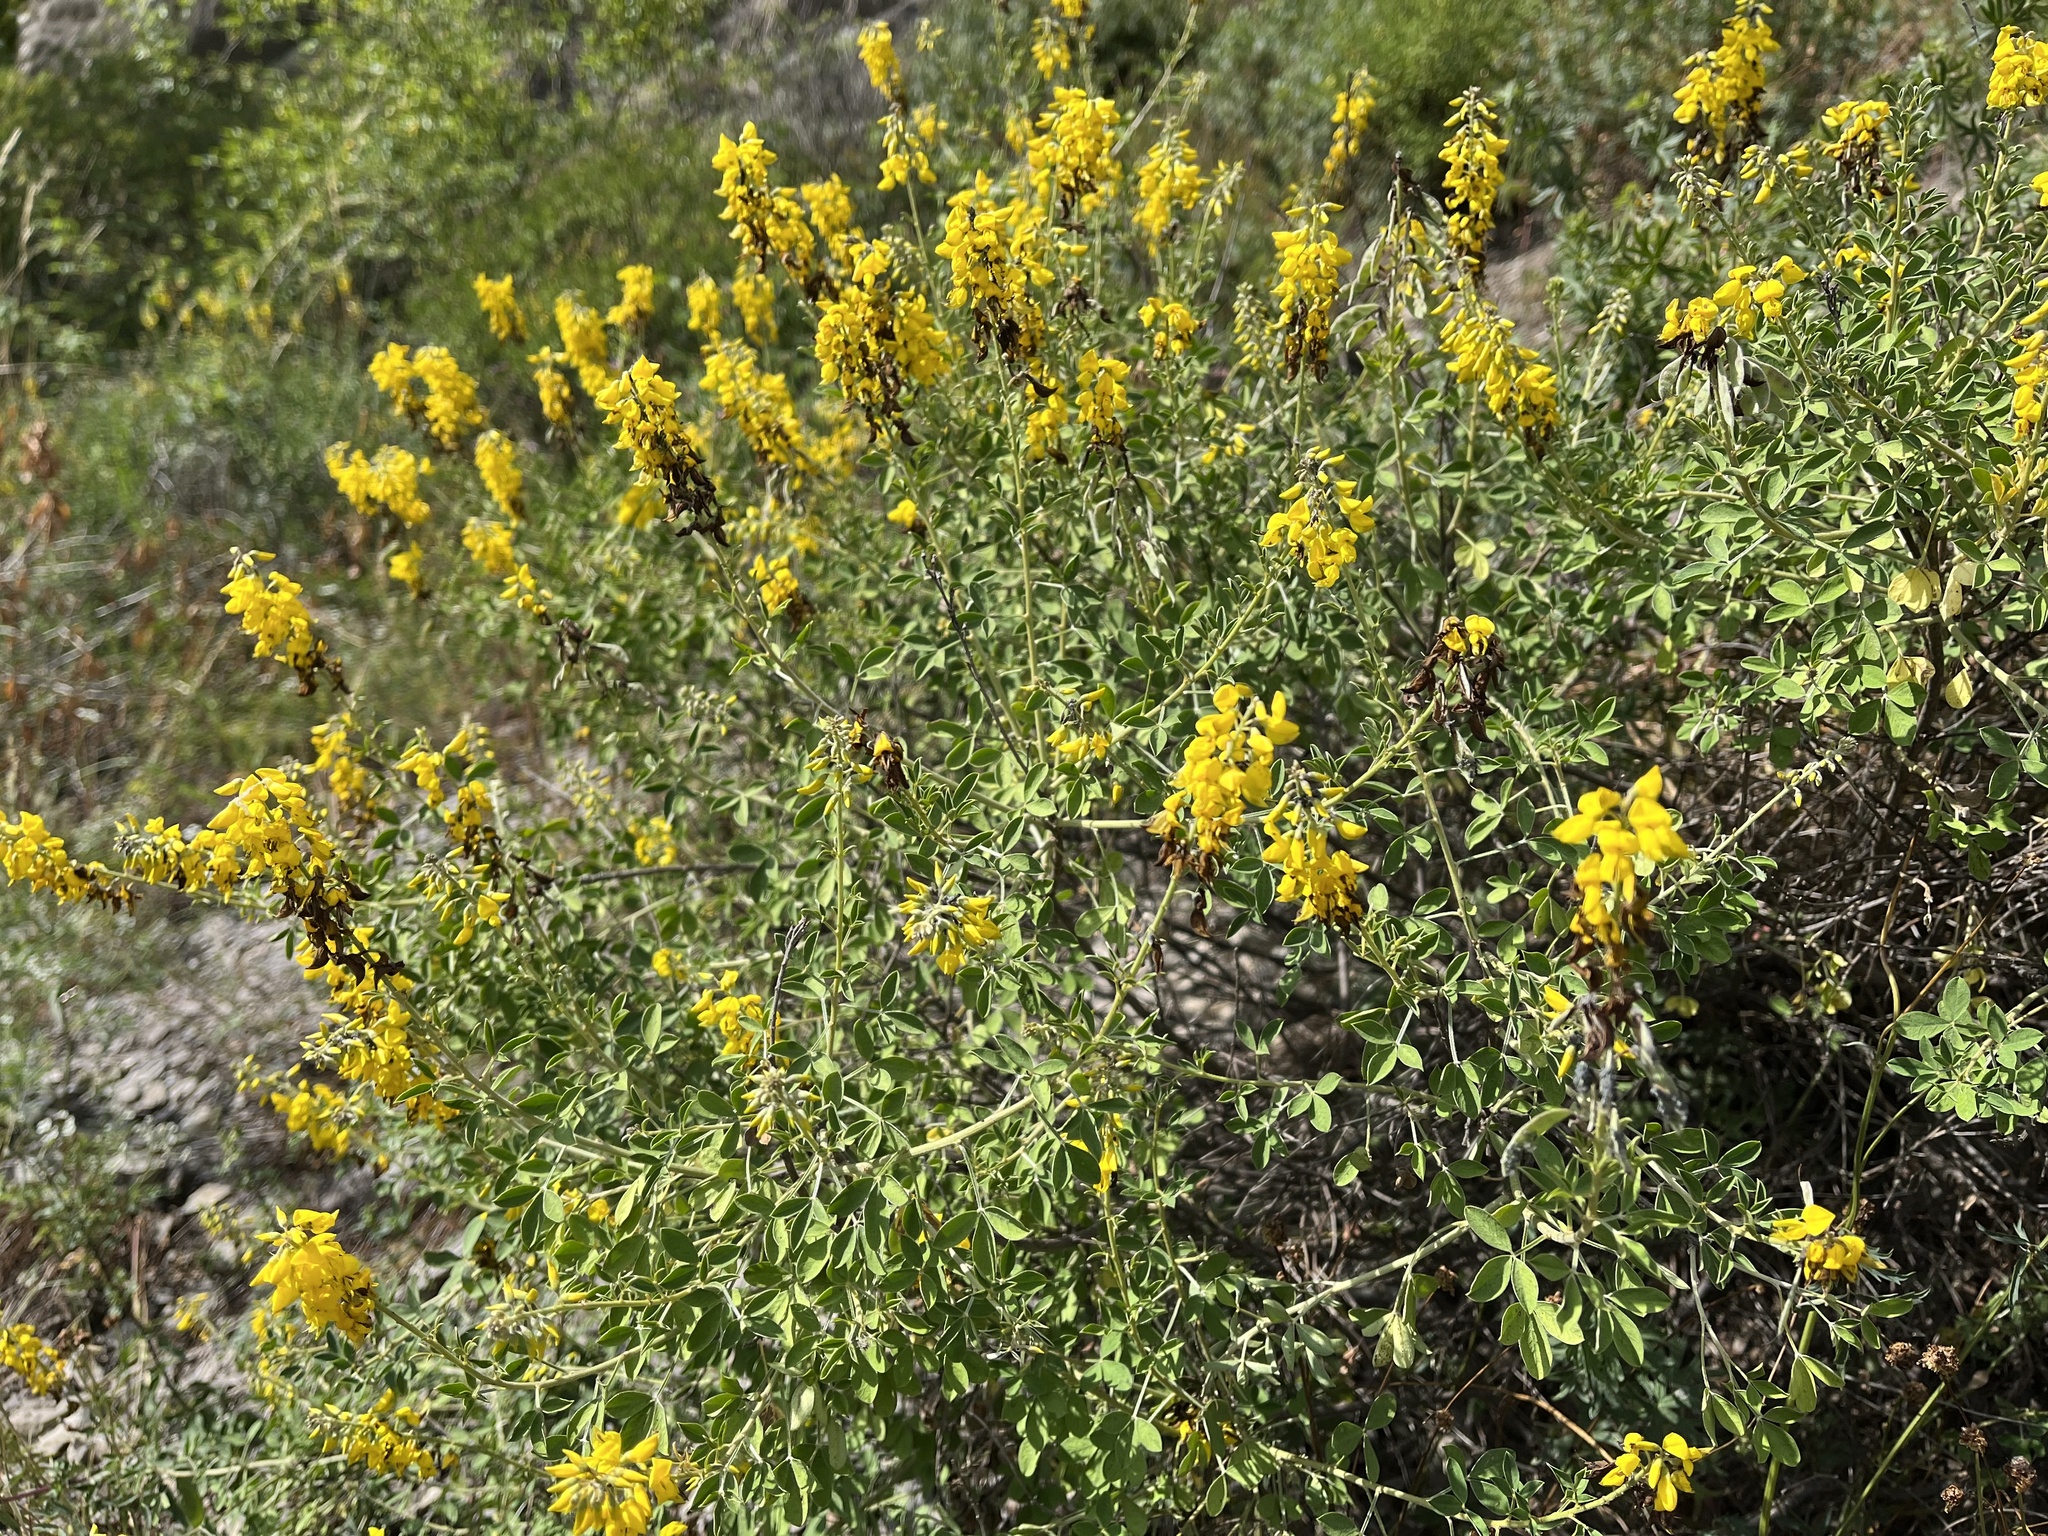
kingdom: Plantae
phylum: Tracheophyta
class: Magnoliopsida
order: Fabales
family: Fabaceae
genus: Cytisus
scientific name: Cytisus nigricans
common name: Black broom
